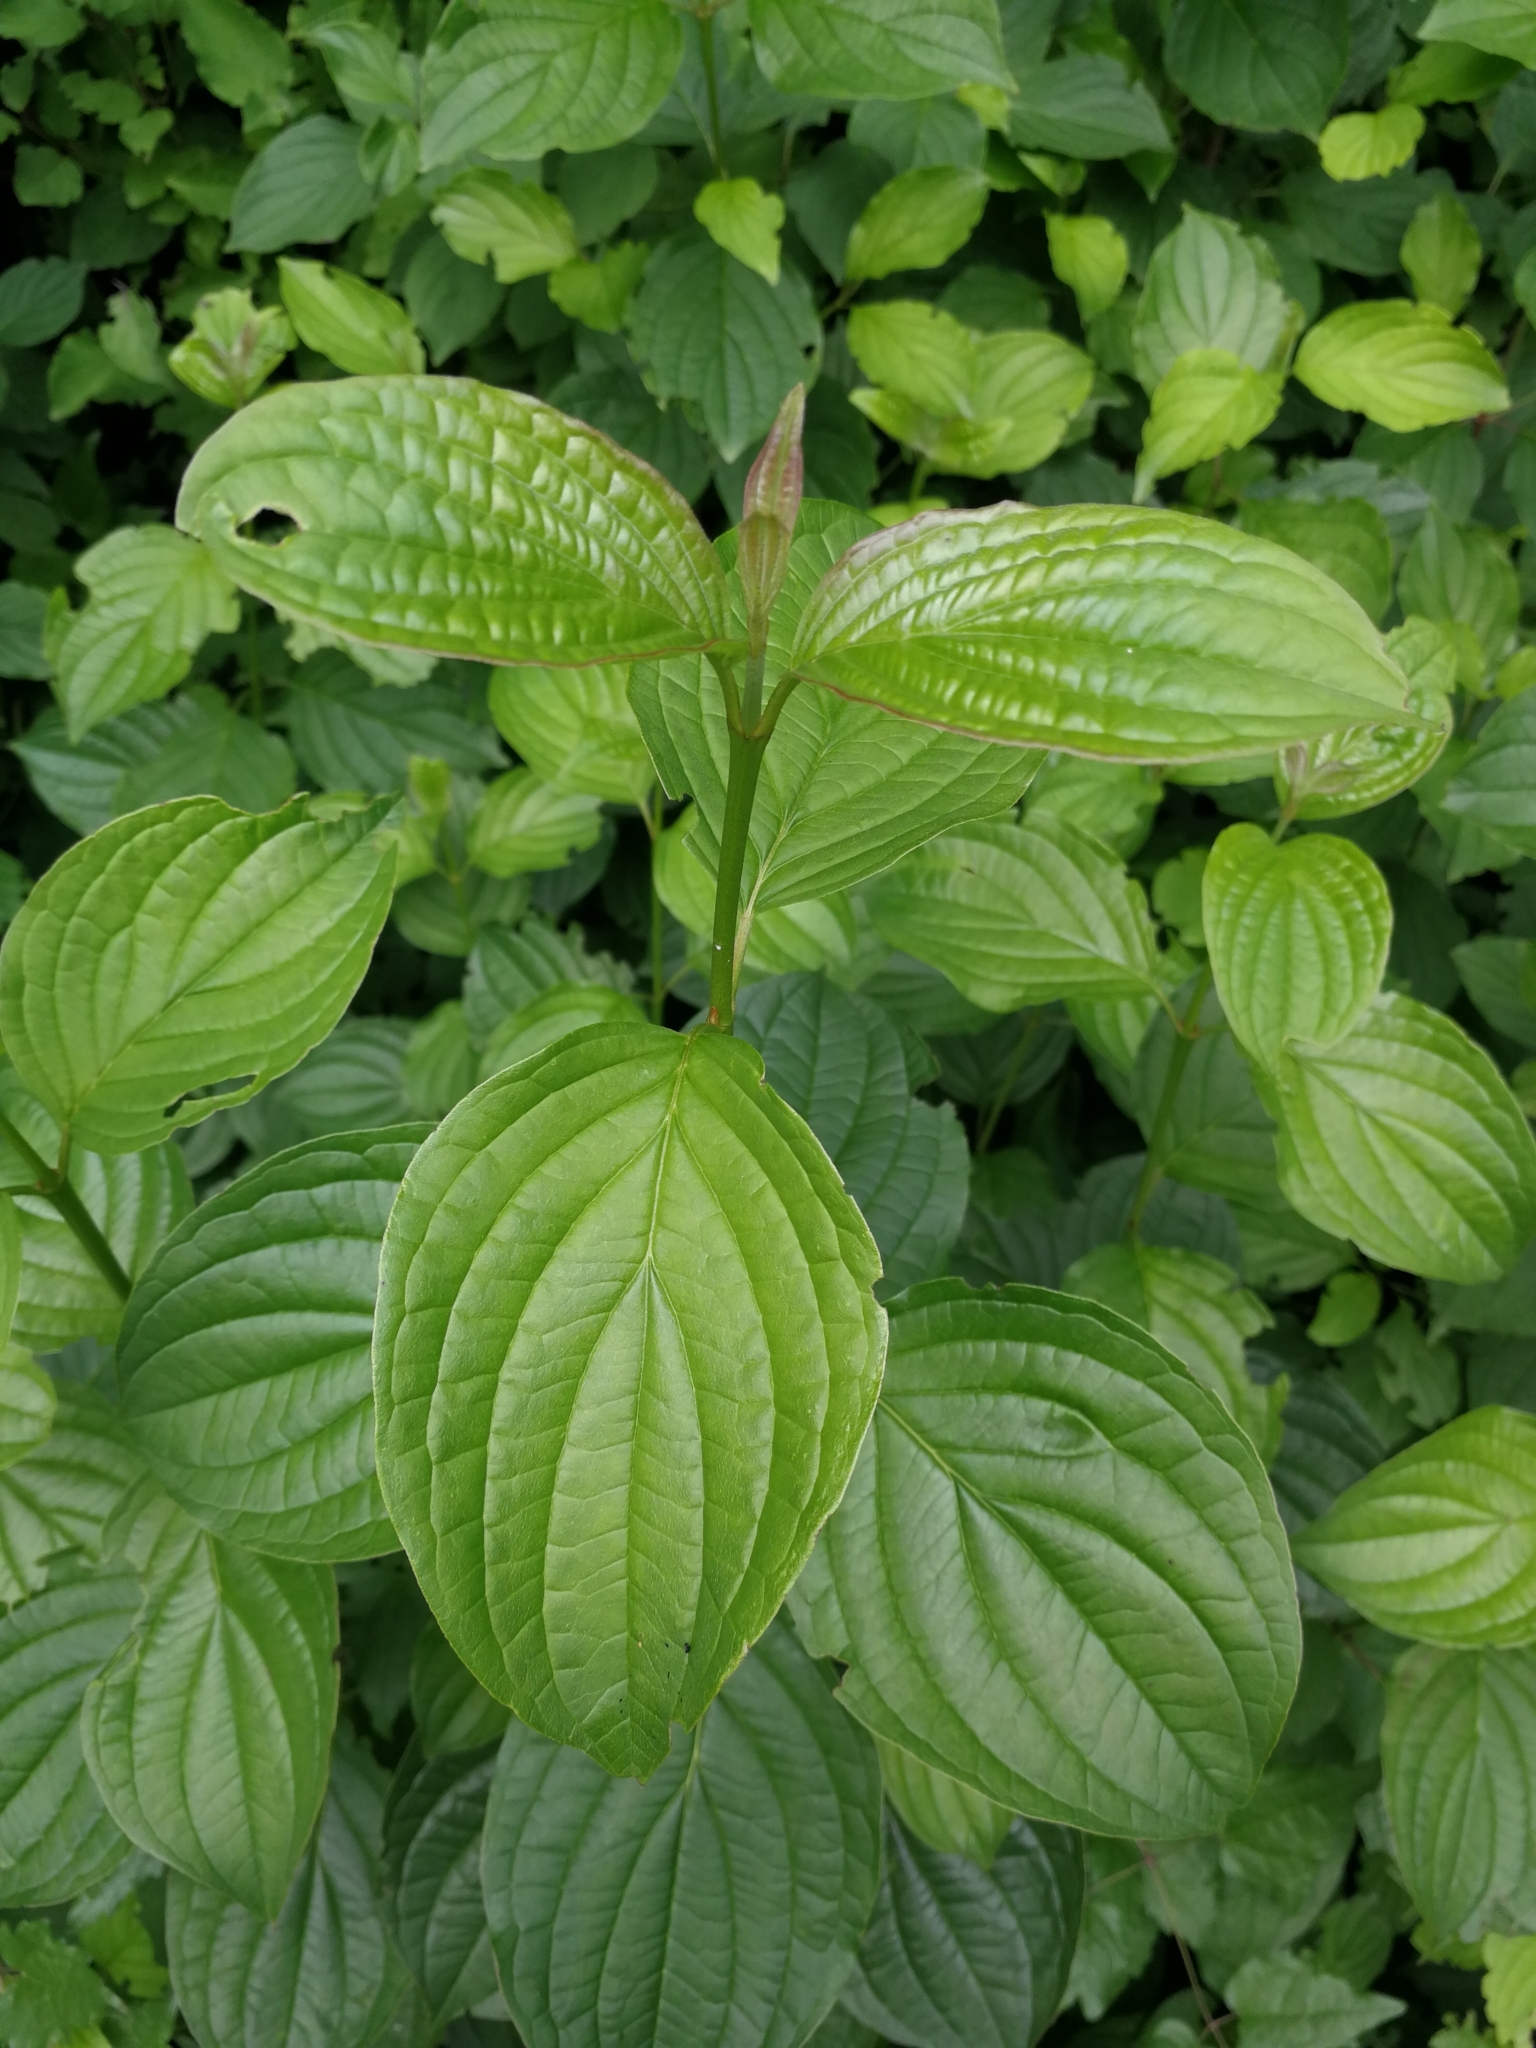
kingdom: Plantae
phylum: Tracheophyta
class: Magnoliopsida
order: Cornales
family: Cornaceae
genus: Cornus
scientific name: Cornus sanguinea
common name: Dogwood
